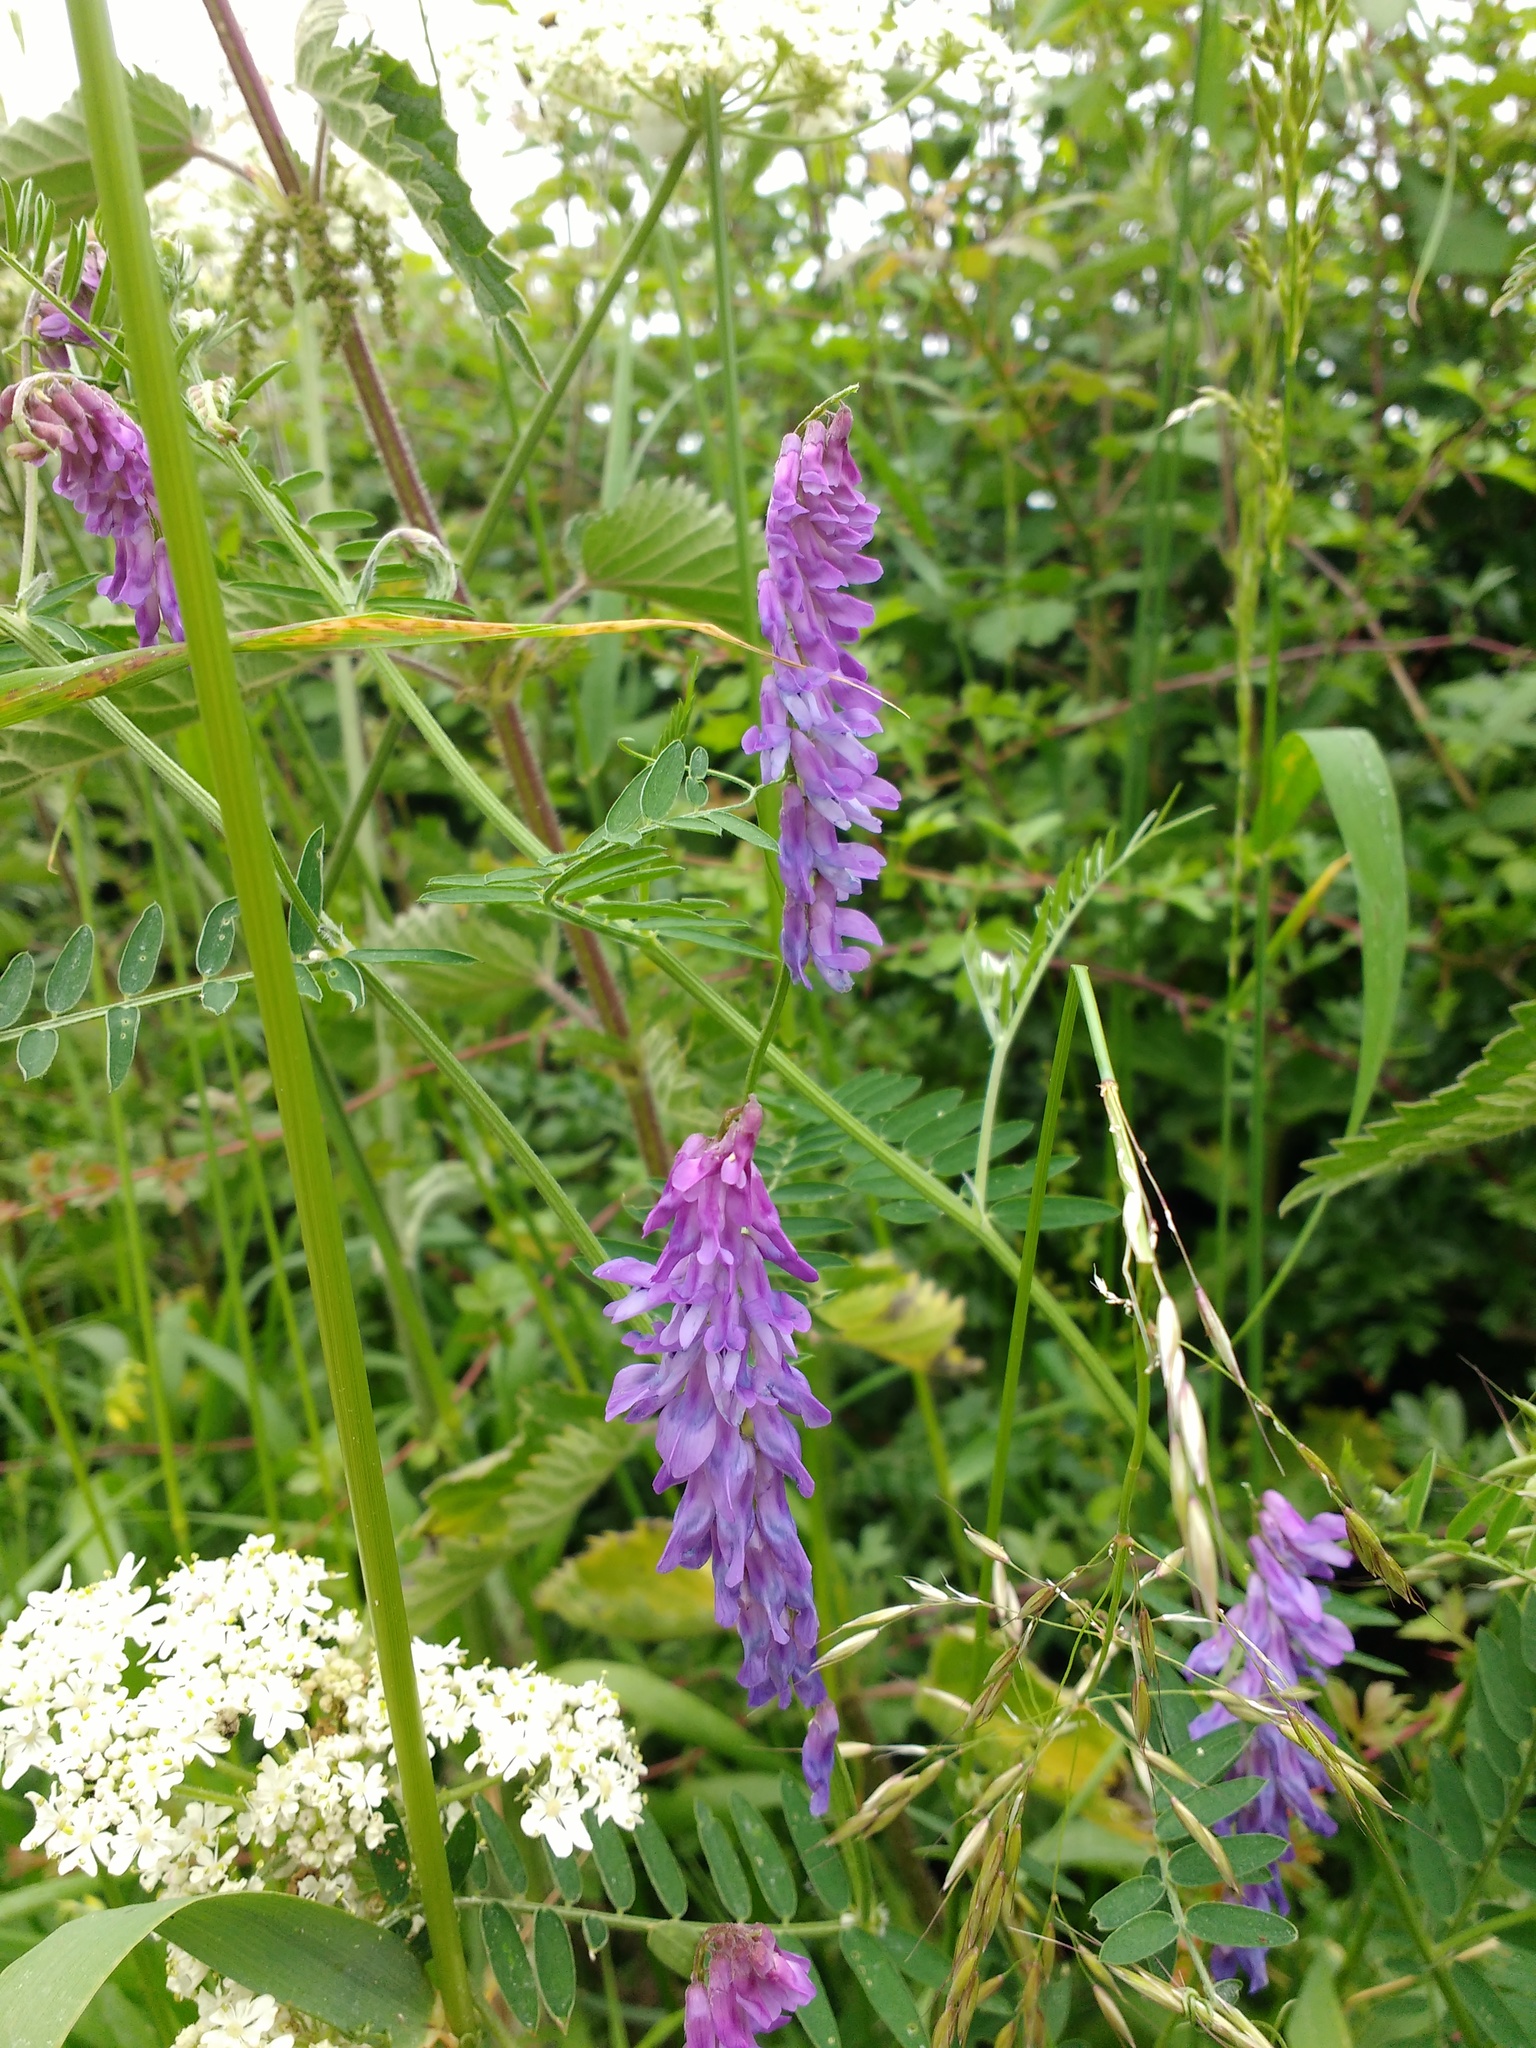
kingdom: Plantae
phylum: Tracheophyta
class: Magnoliopsida
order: Fabales
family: Fabaceae
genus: Vicia
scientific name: Vicia cracca
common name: Bird vetch
